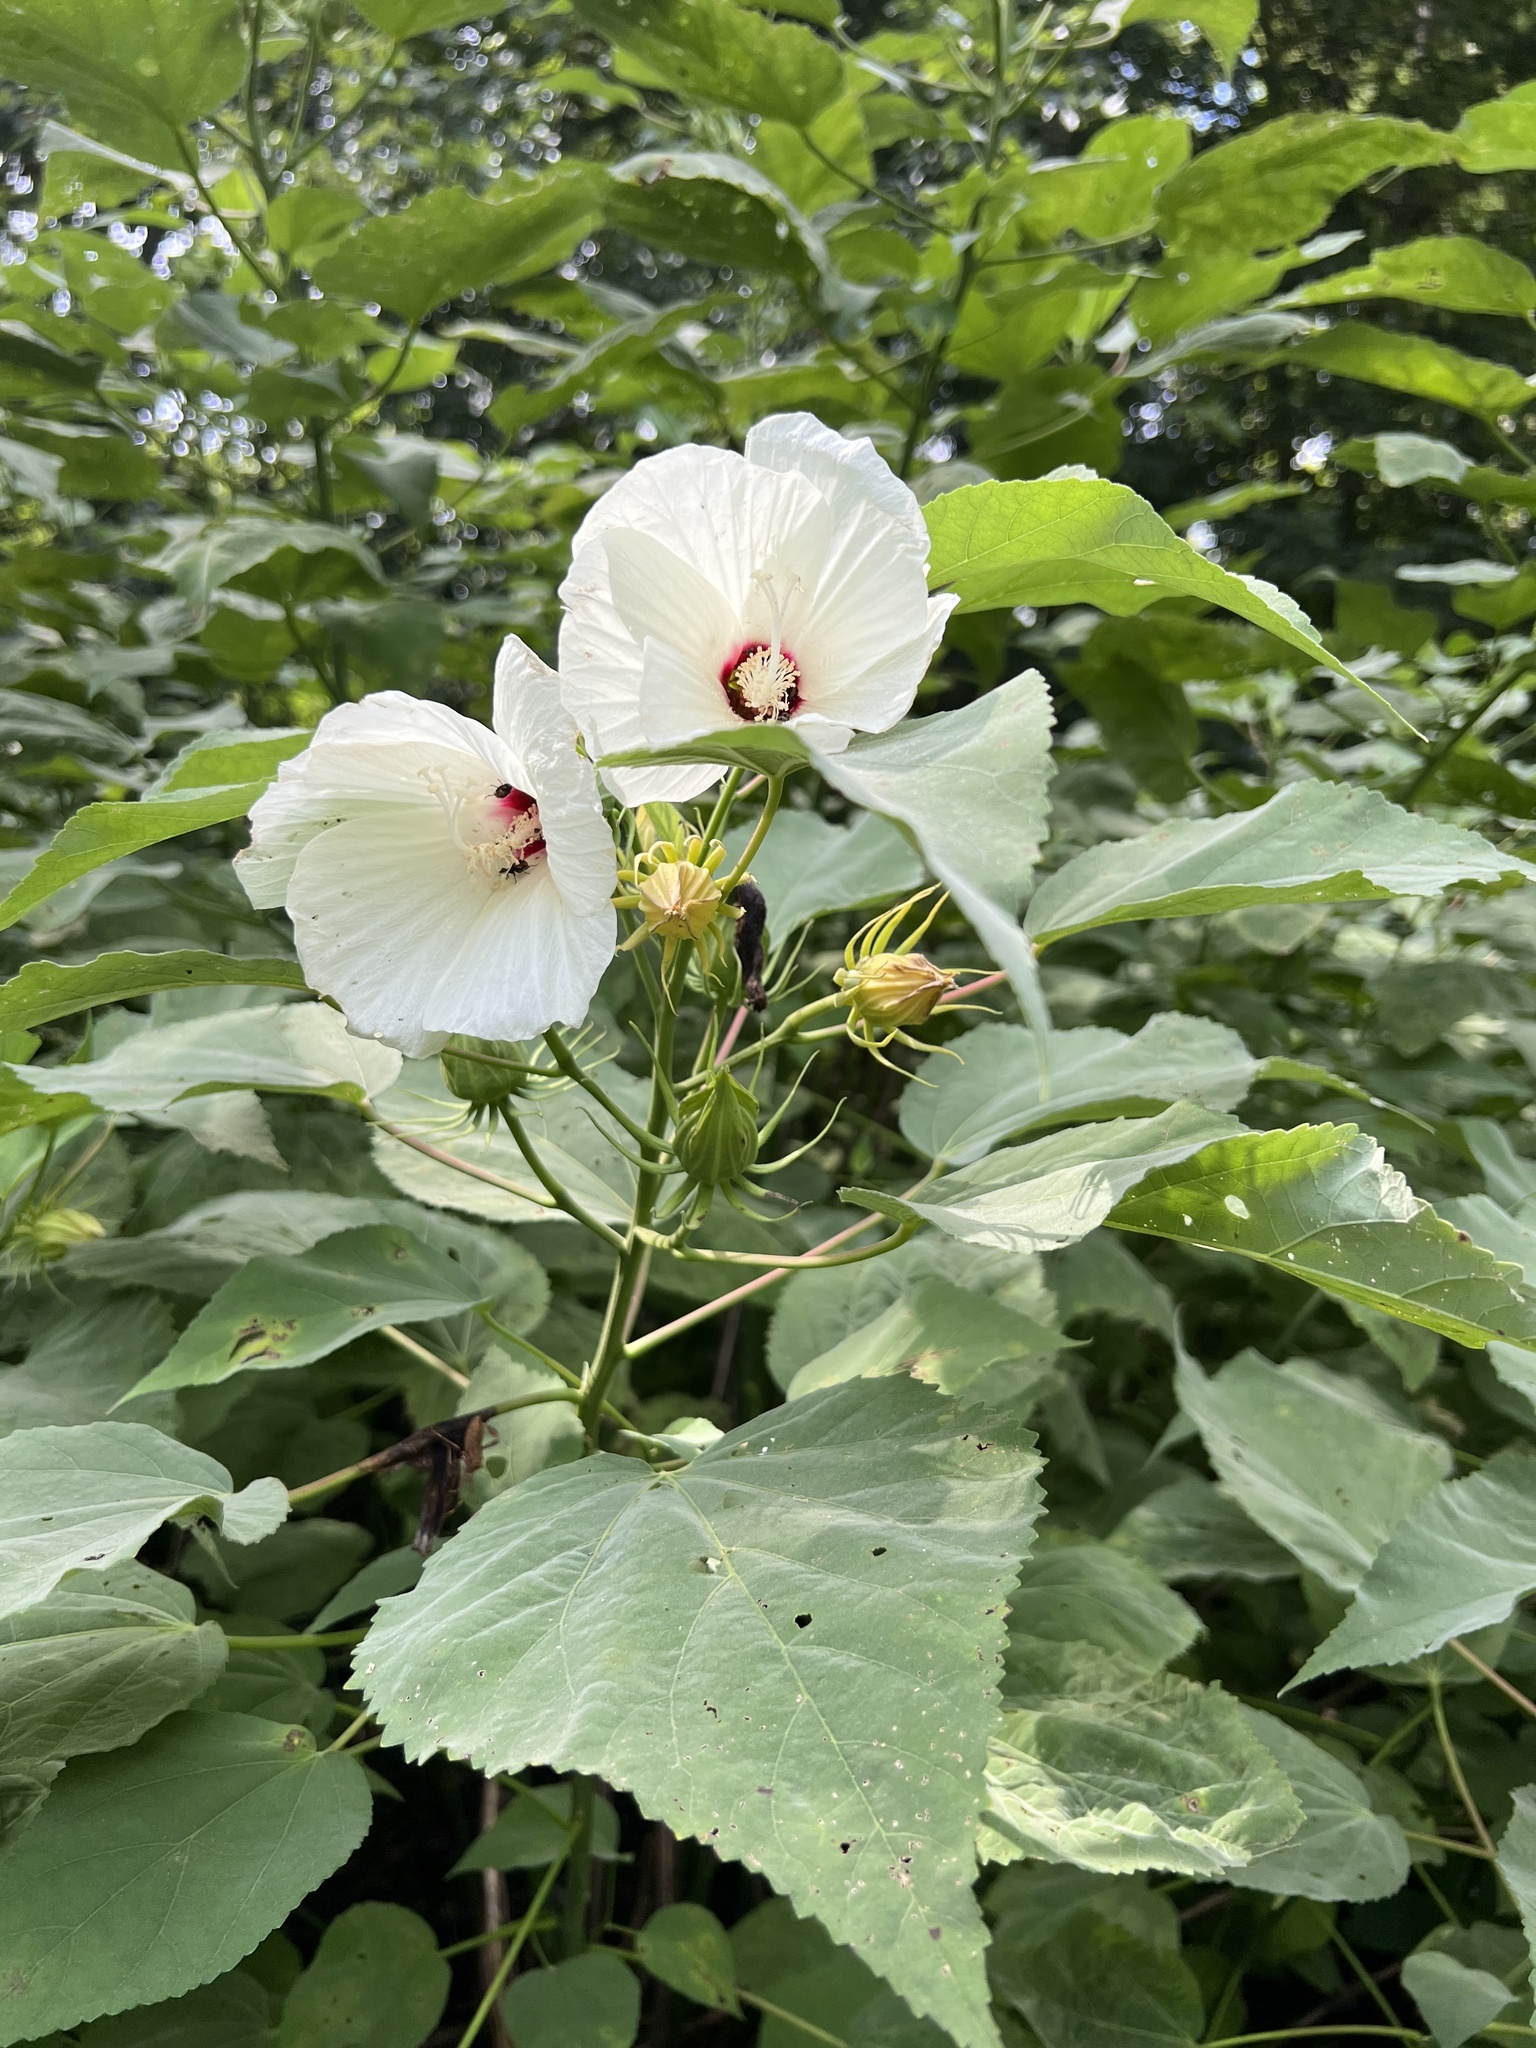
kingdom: Plantae
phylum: Tracheophyta
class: Magnoliopsida
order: Malvales
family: Malvaceae
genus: Hibiscus
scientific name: Hibiscus moscheutos
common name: Common rose-mallow
